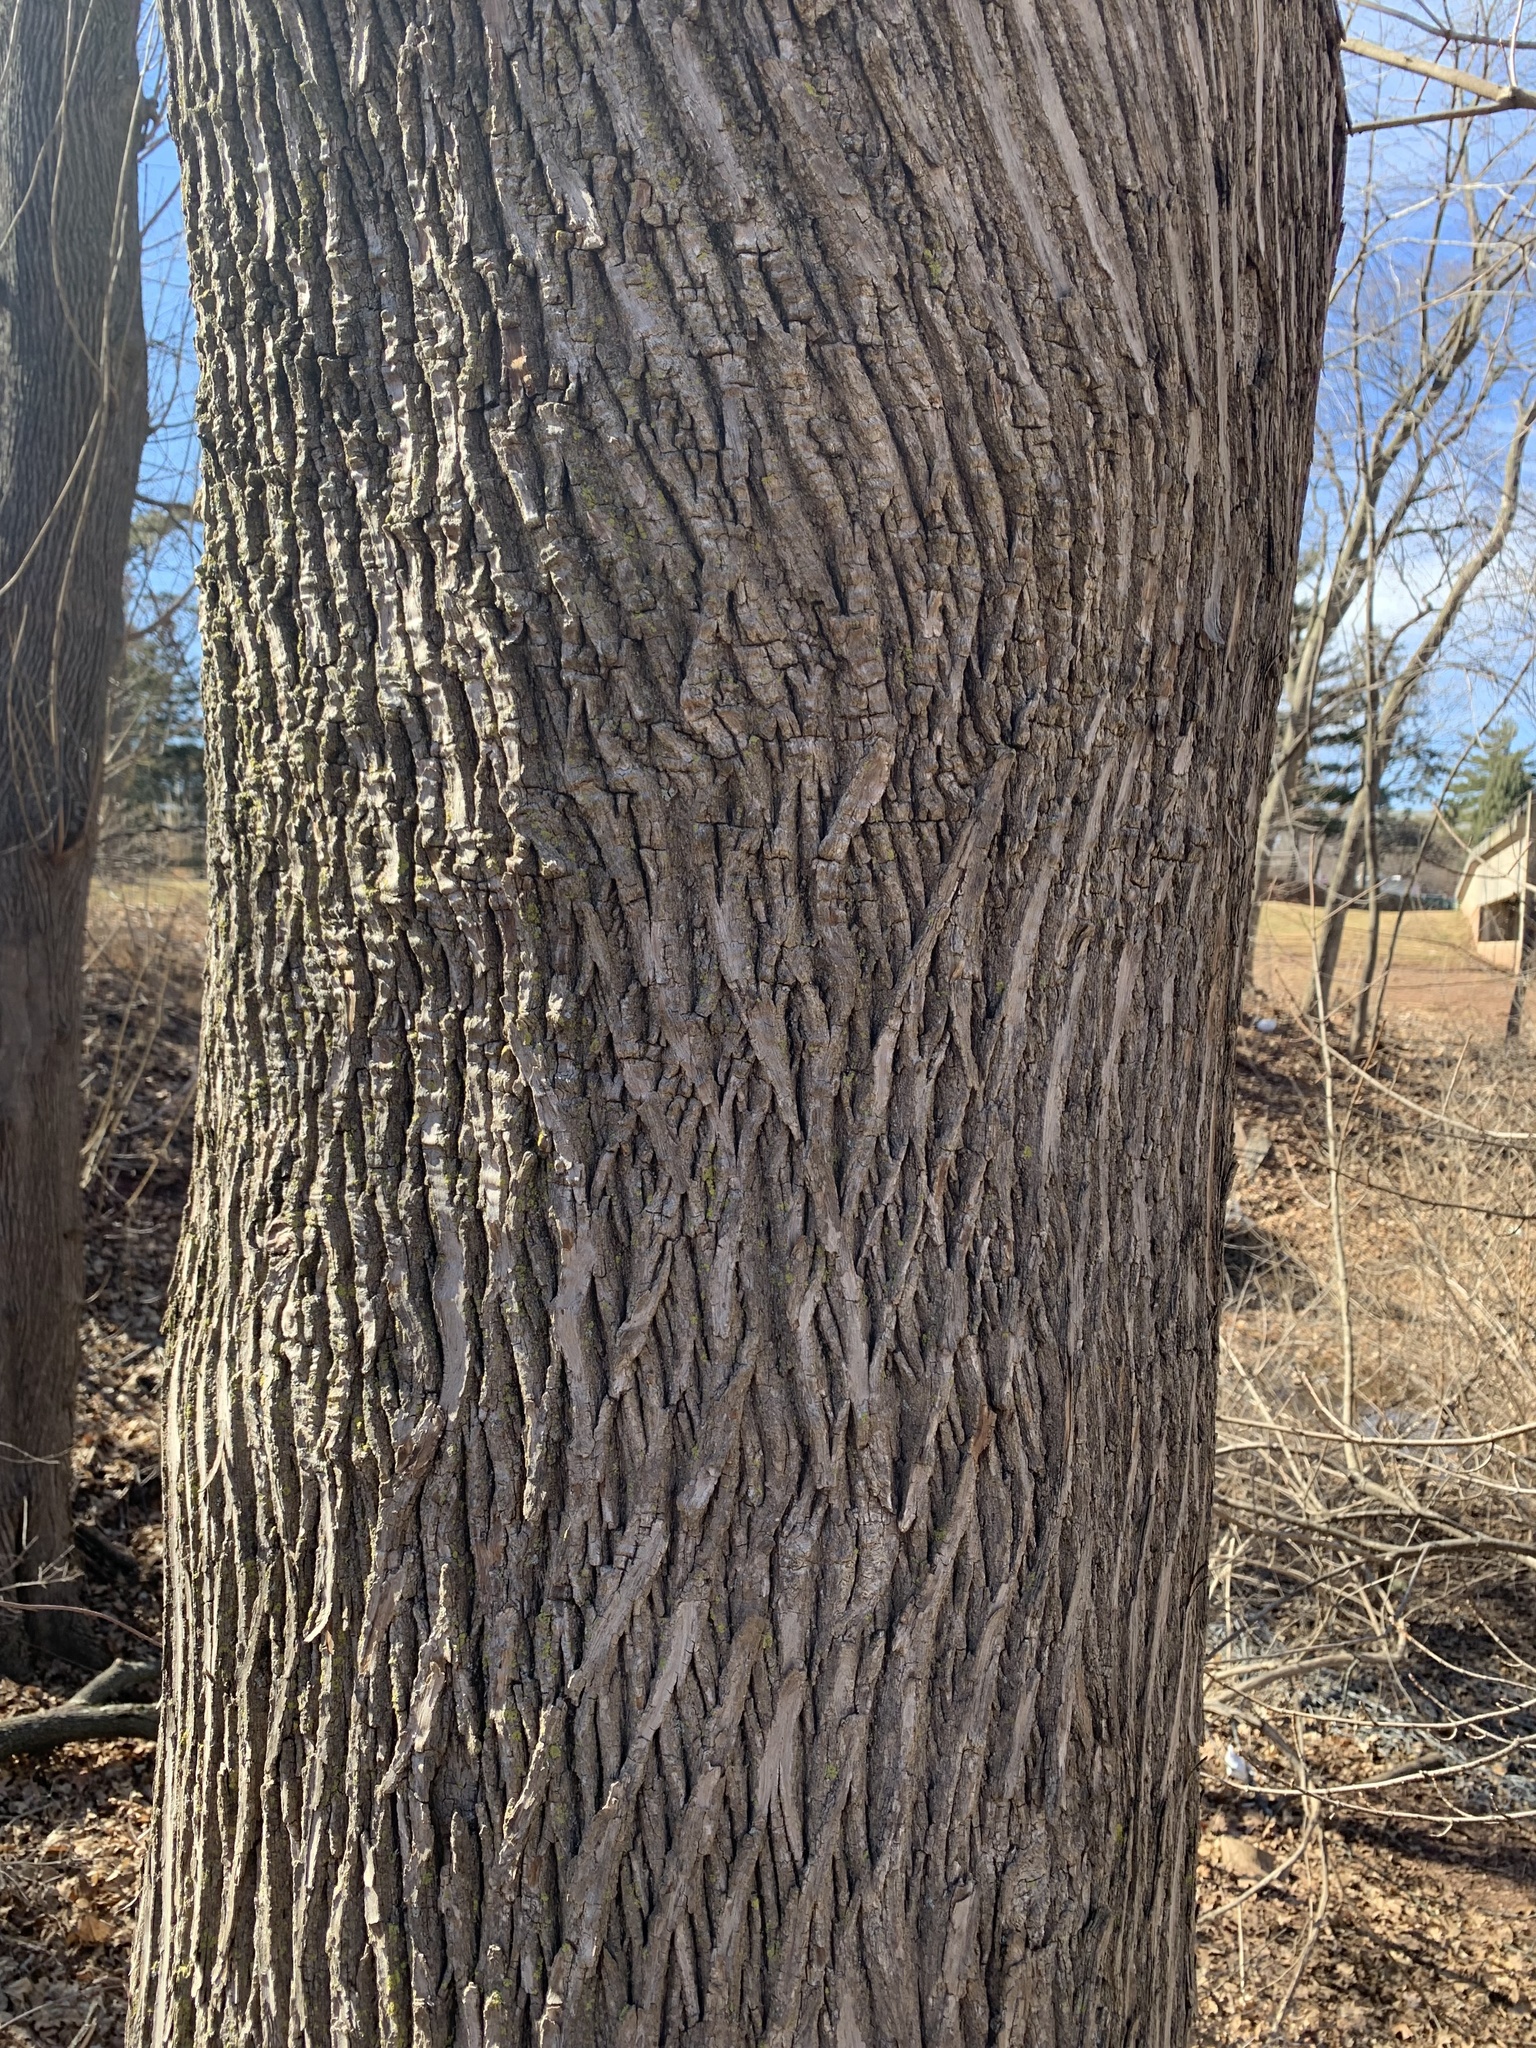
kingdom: Plantae
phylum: Tracheophyta
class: Magnoliopsida
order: Sapindales
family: Sapindaceae
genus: Acer
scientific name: Acer platanoides
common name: Norway maple
